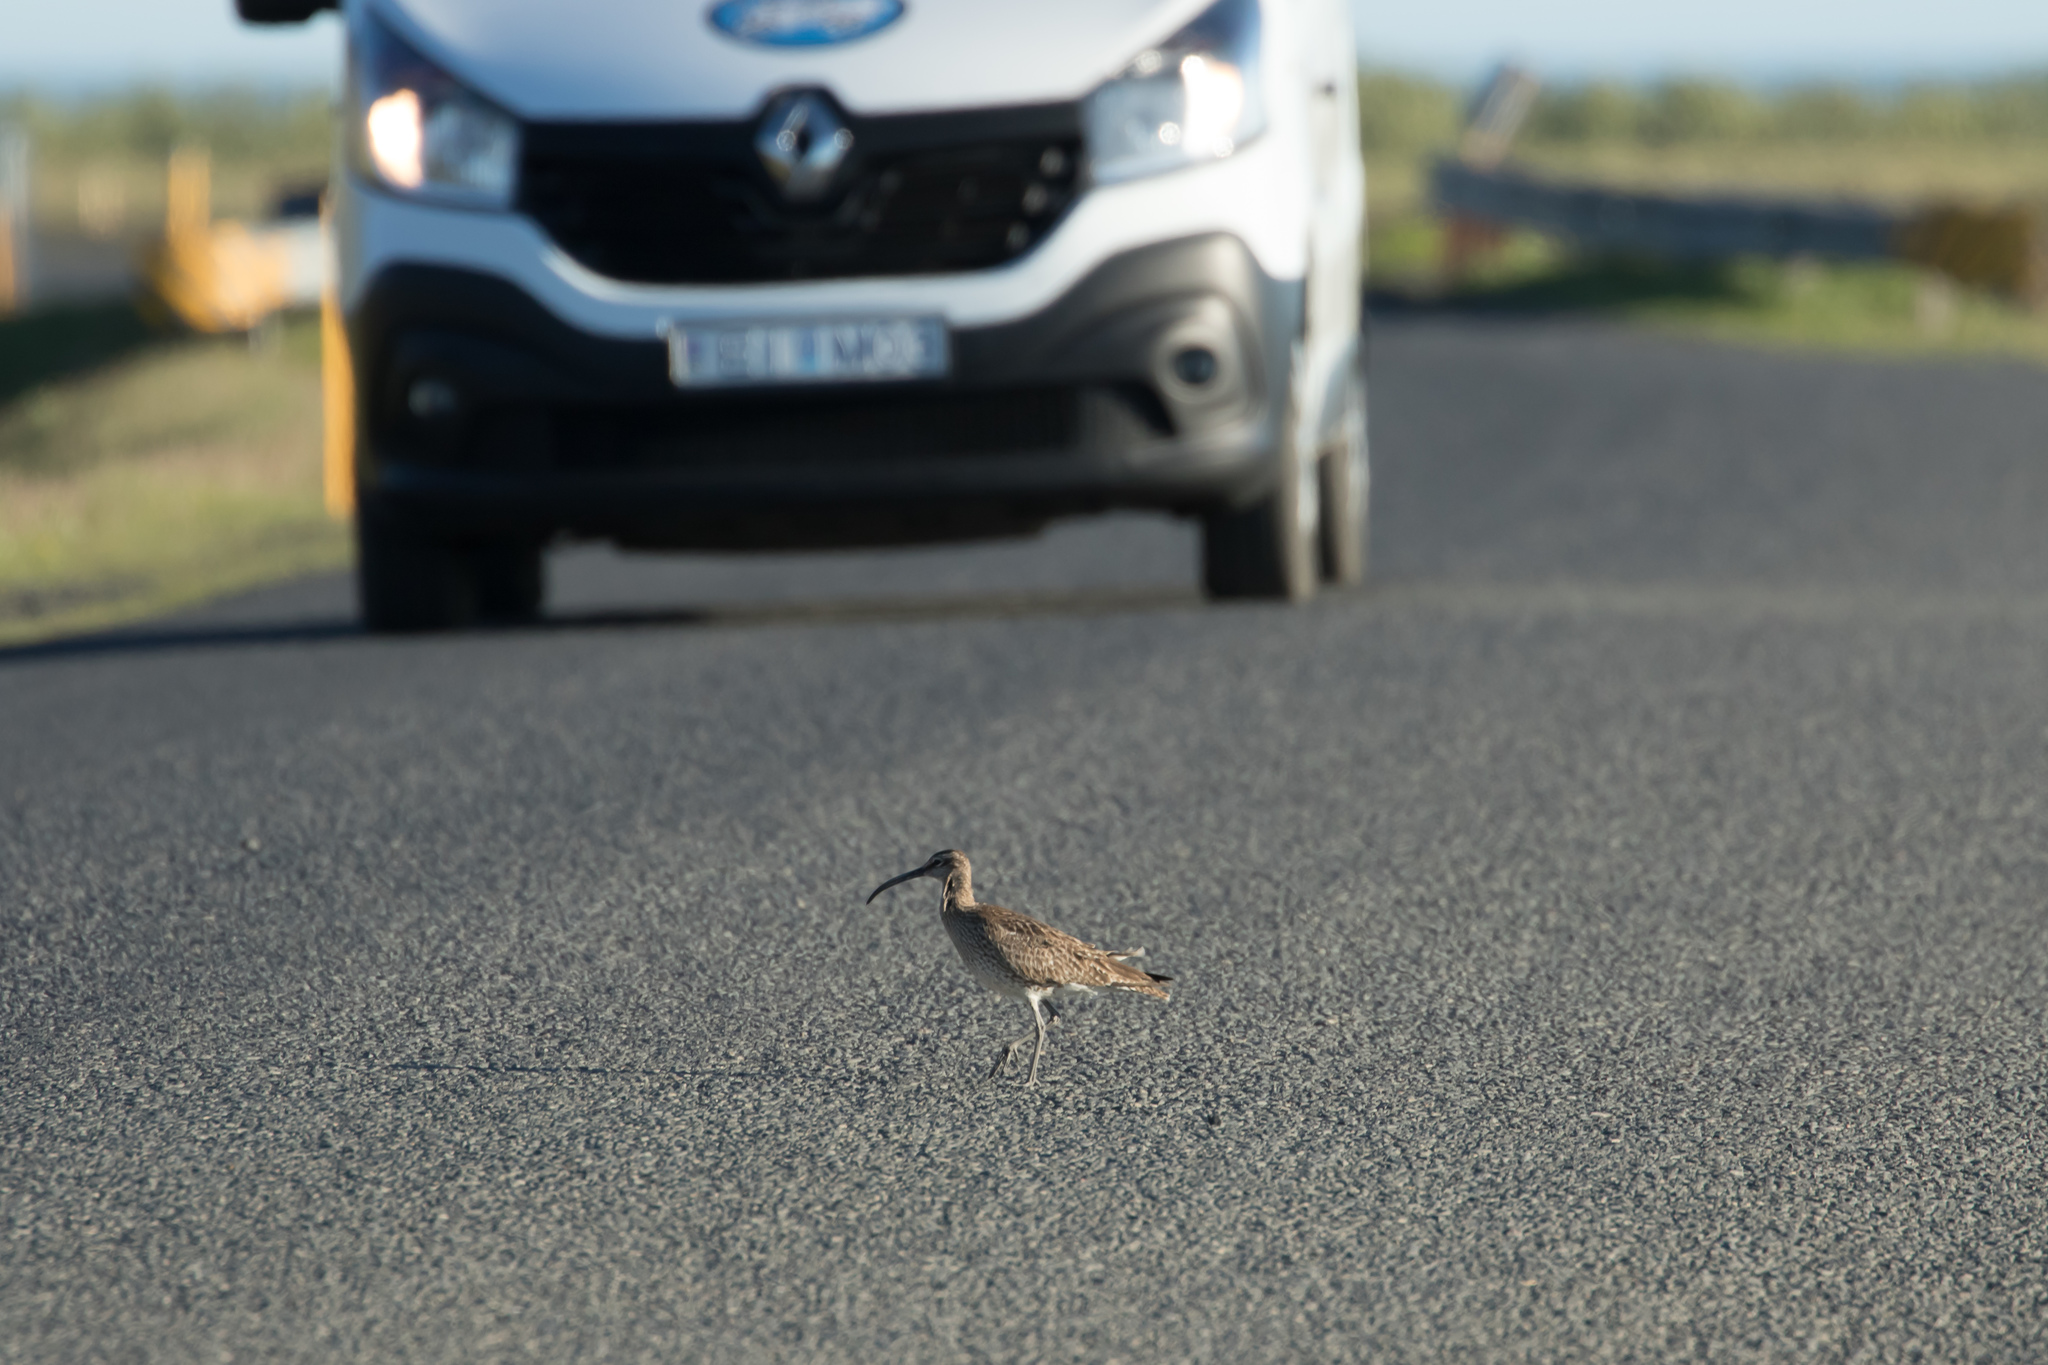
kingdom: Animalia
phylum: Chordata
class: Aves
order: Charadriiformes
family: Scolopacidae
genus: Numenius
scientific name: Numenius phaeopus
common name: Whimbrel
